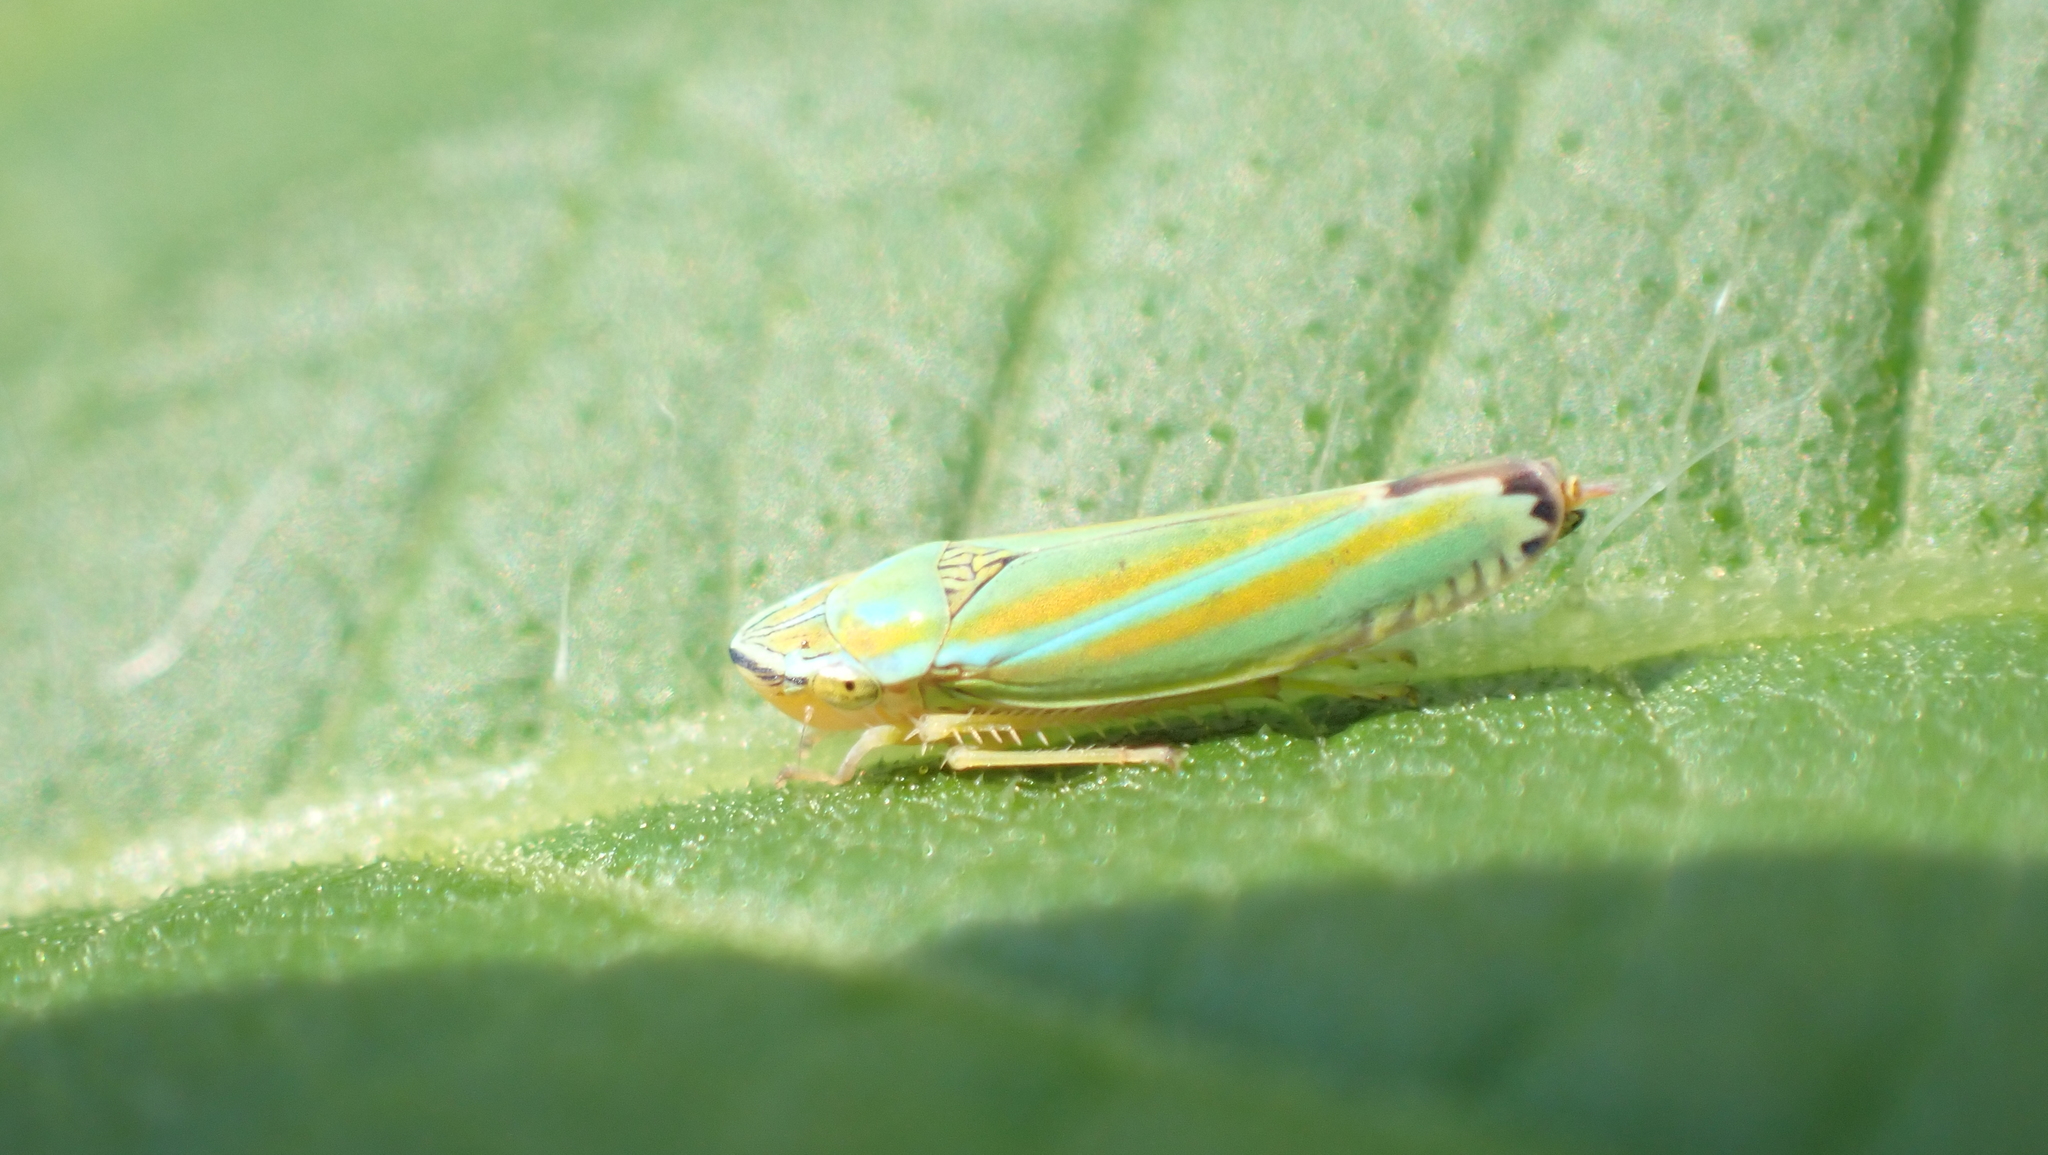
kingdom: Animalia
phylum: Arthropoda
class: Insecta
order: Hemiptera
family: Cicadellidae
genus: Graphocephala
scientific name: Graphocephala versuta
